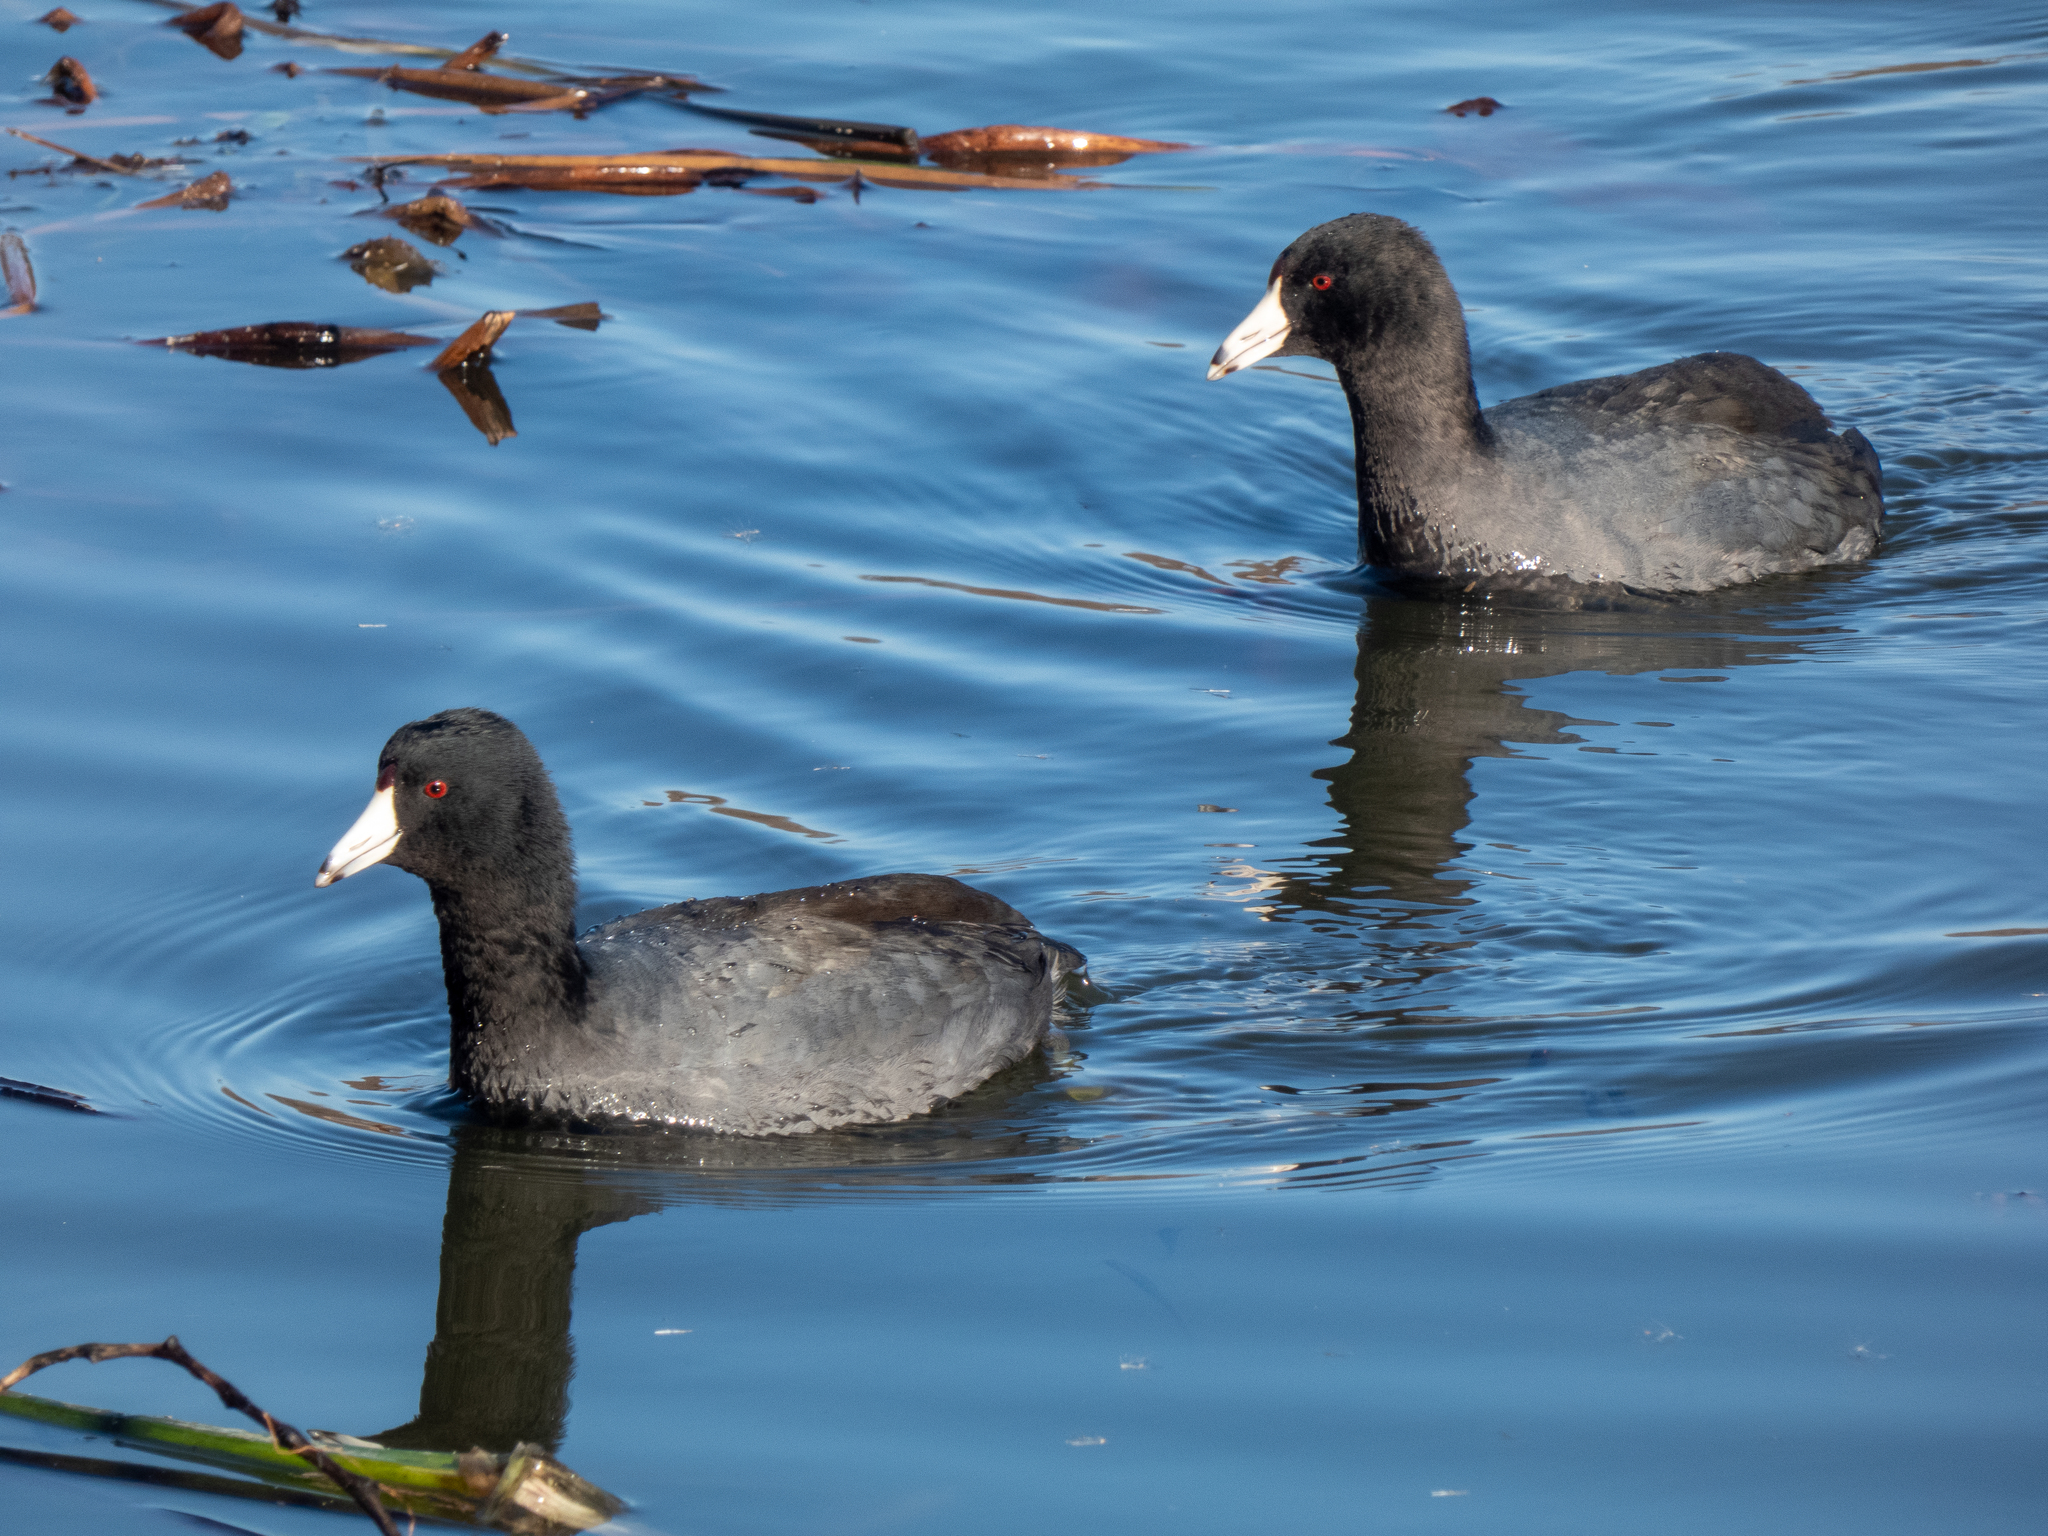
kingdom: Animalia
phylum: Chordata
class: Aves
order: Gruiformes
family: Rallidae
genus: Fulica
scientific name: Fulica americana
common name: American coot
